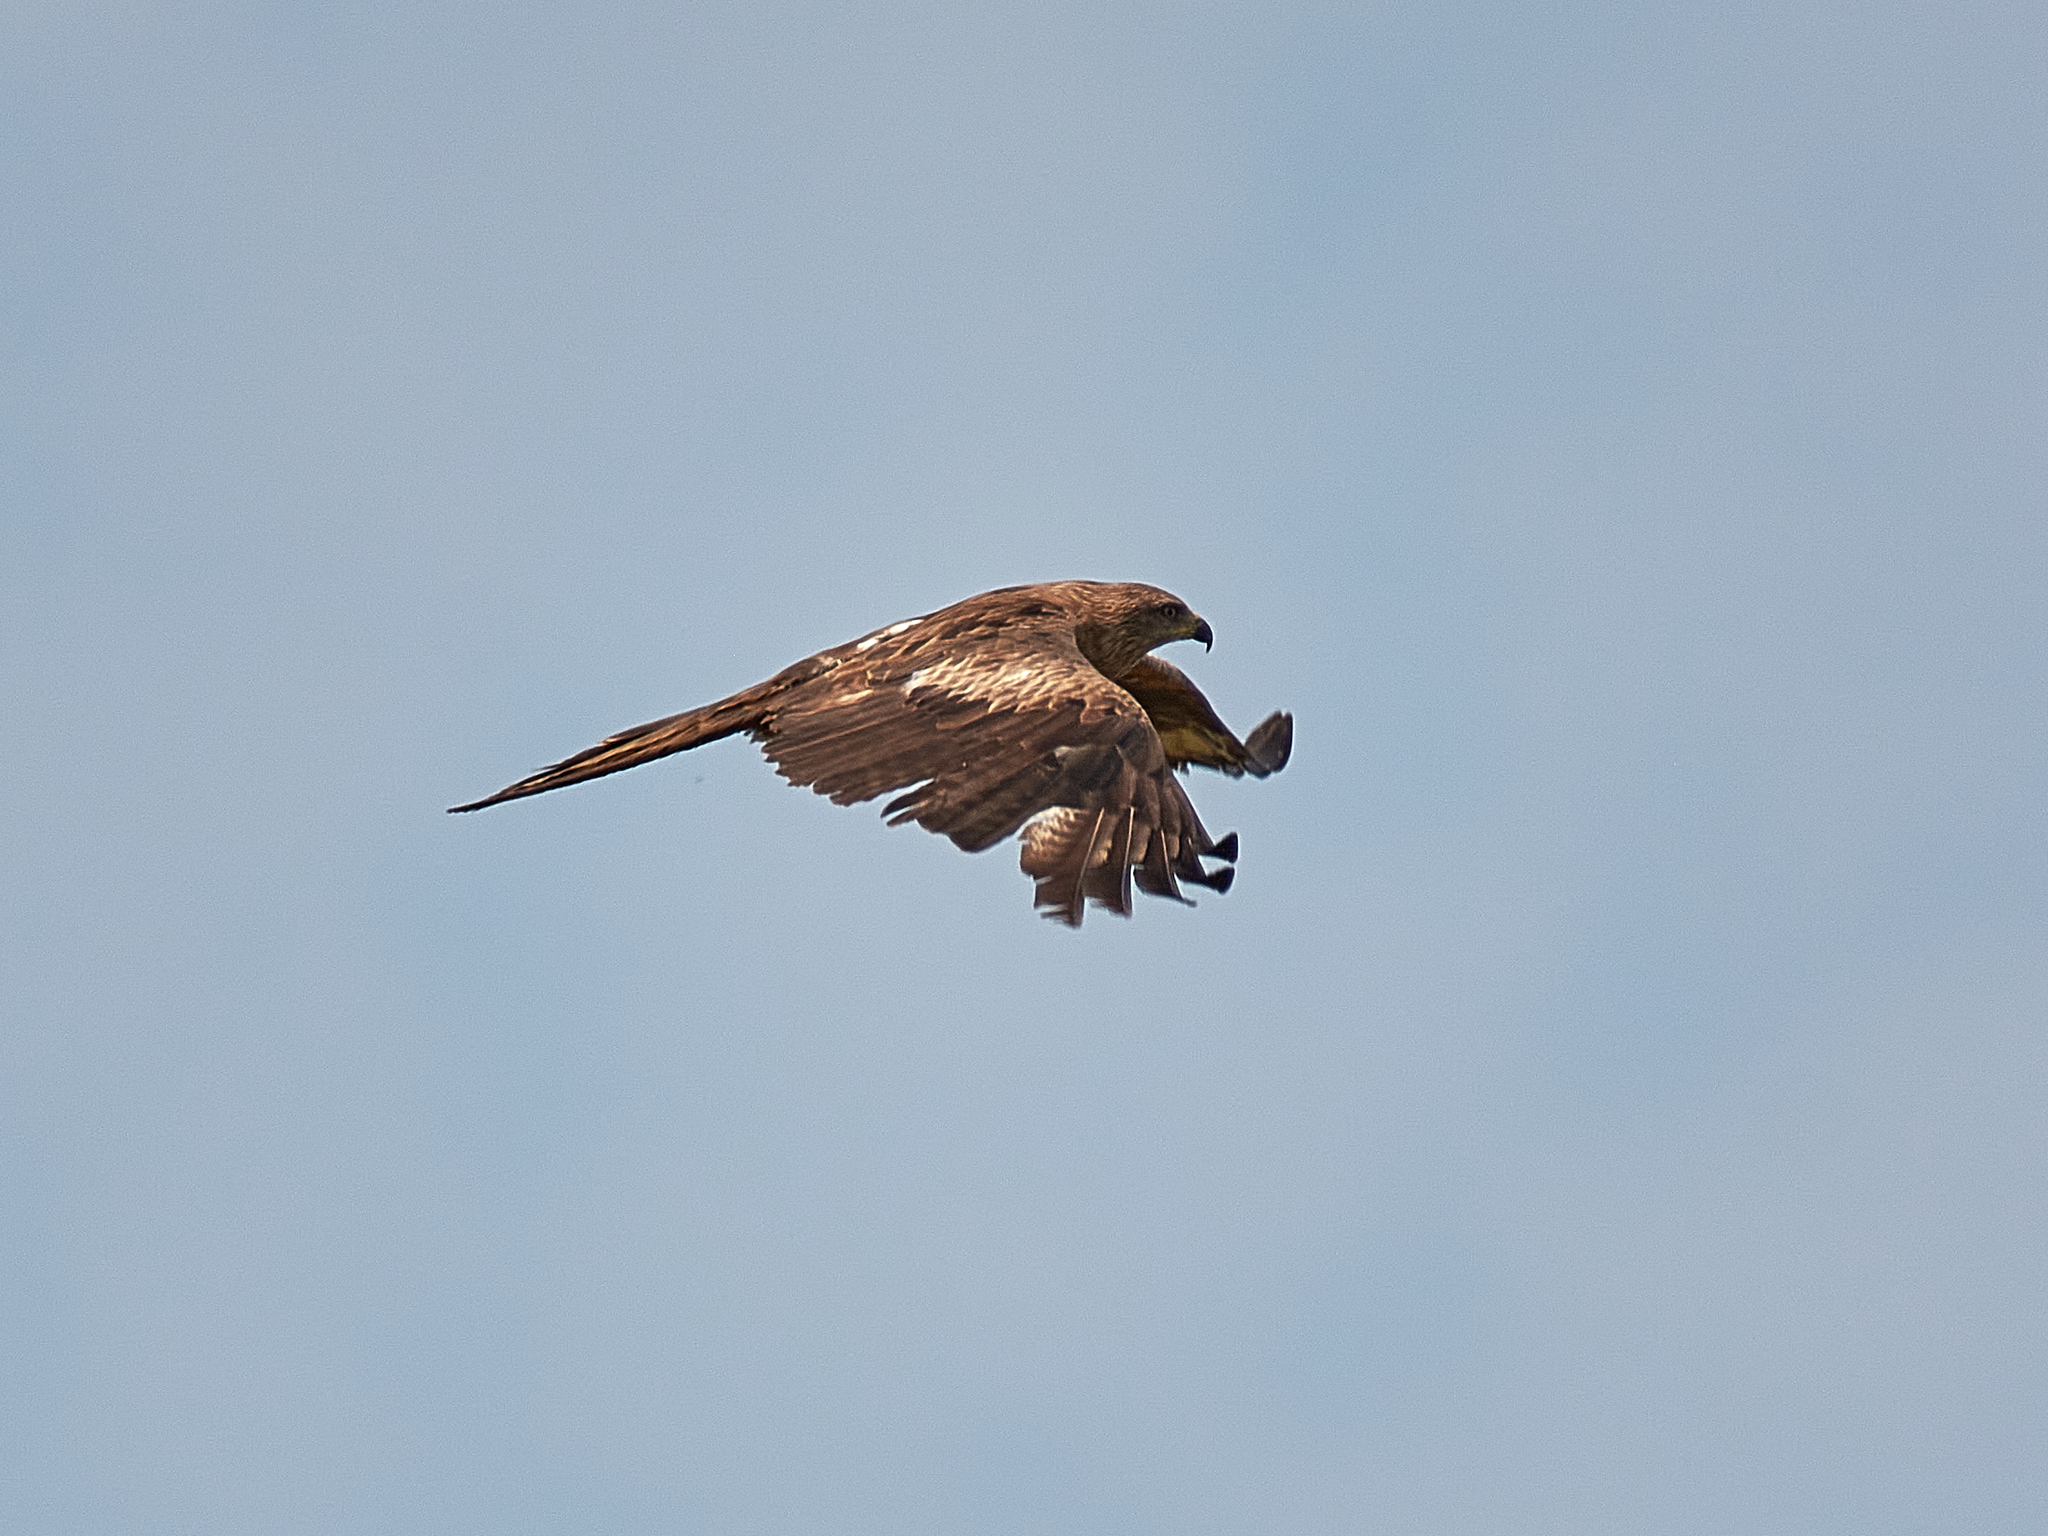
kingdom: Animalia
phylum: Chordata
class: Aves
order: Accipitriformes
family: Accipitridae
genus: Milvus
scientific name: Milvus migrans
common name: Black kite
